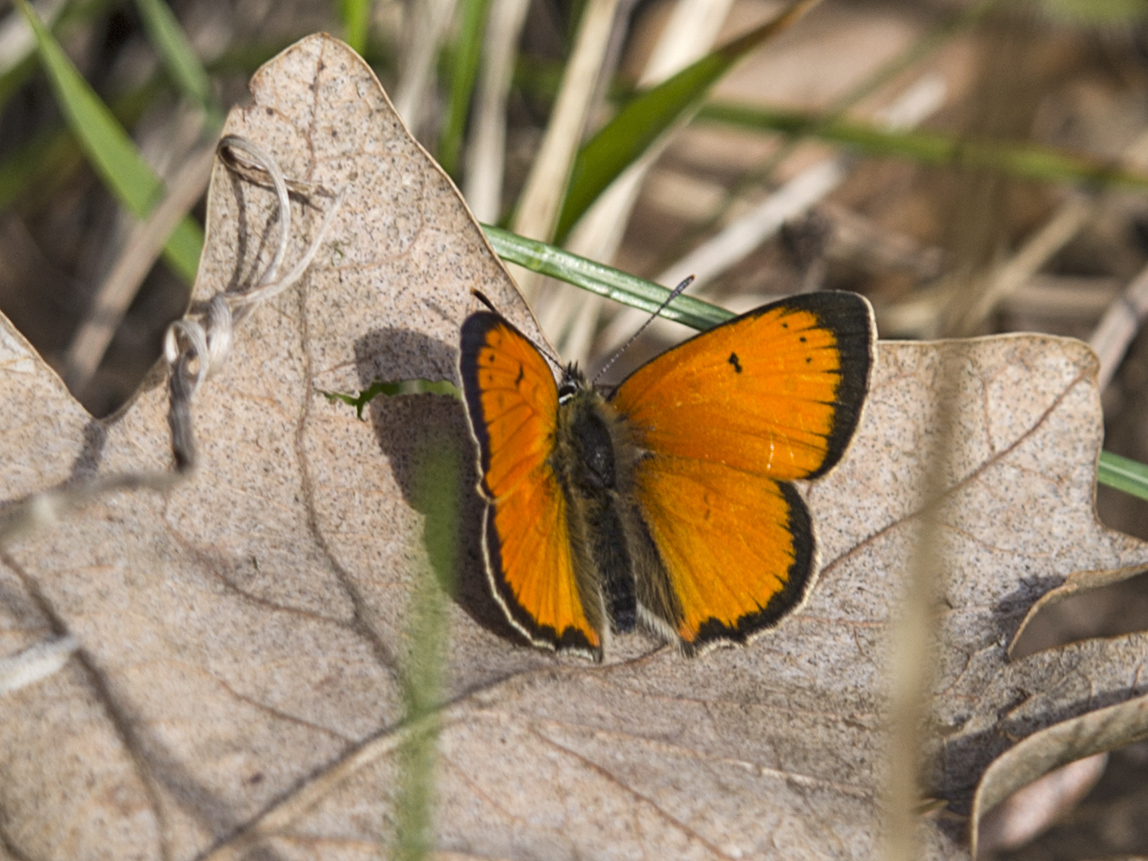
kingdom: Animalia
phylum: Arthropoda
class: Insecta
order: Lepidoptera
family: Lycaenidae
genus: Polyommatus
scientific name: Polyommatus ottomanus
